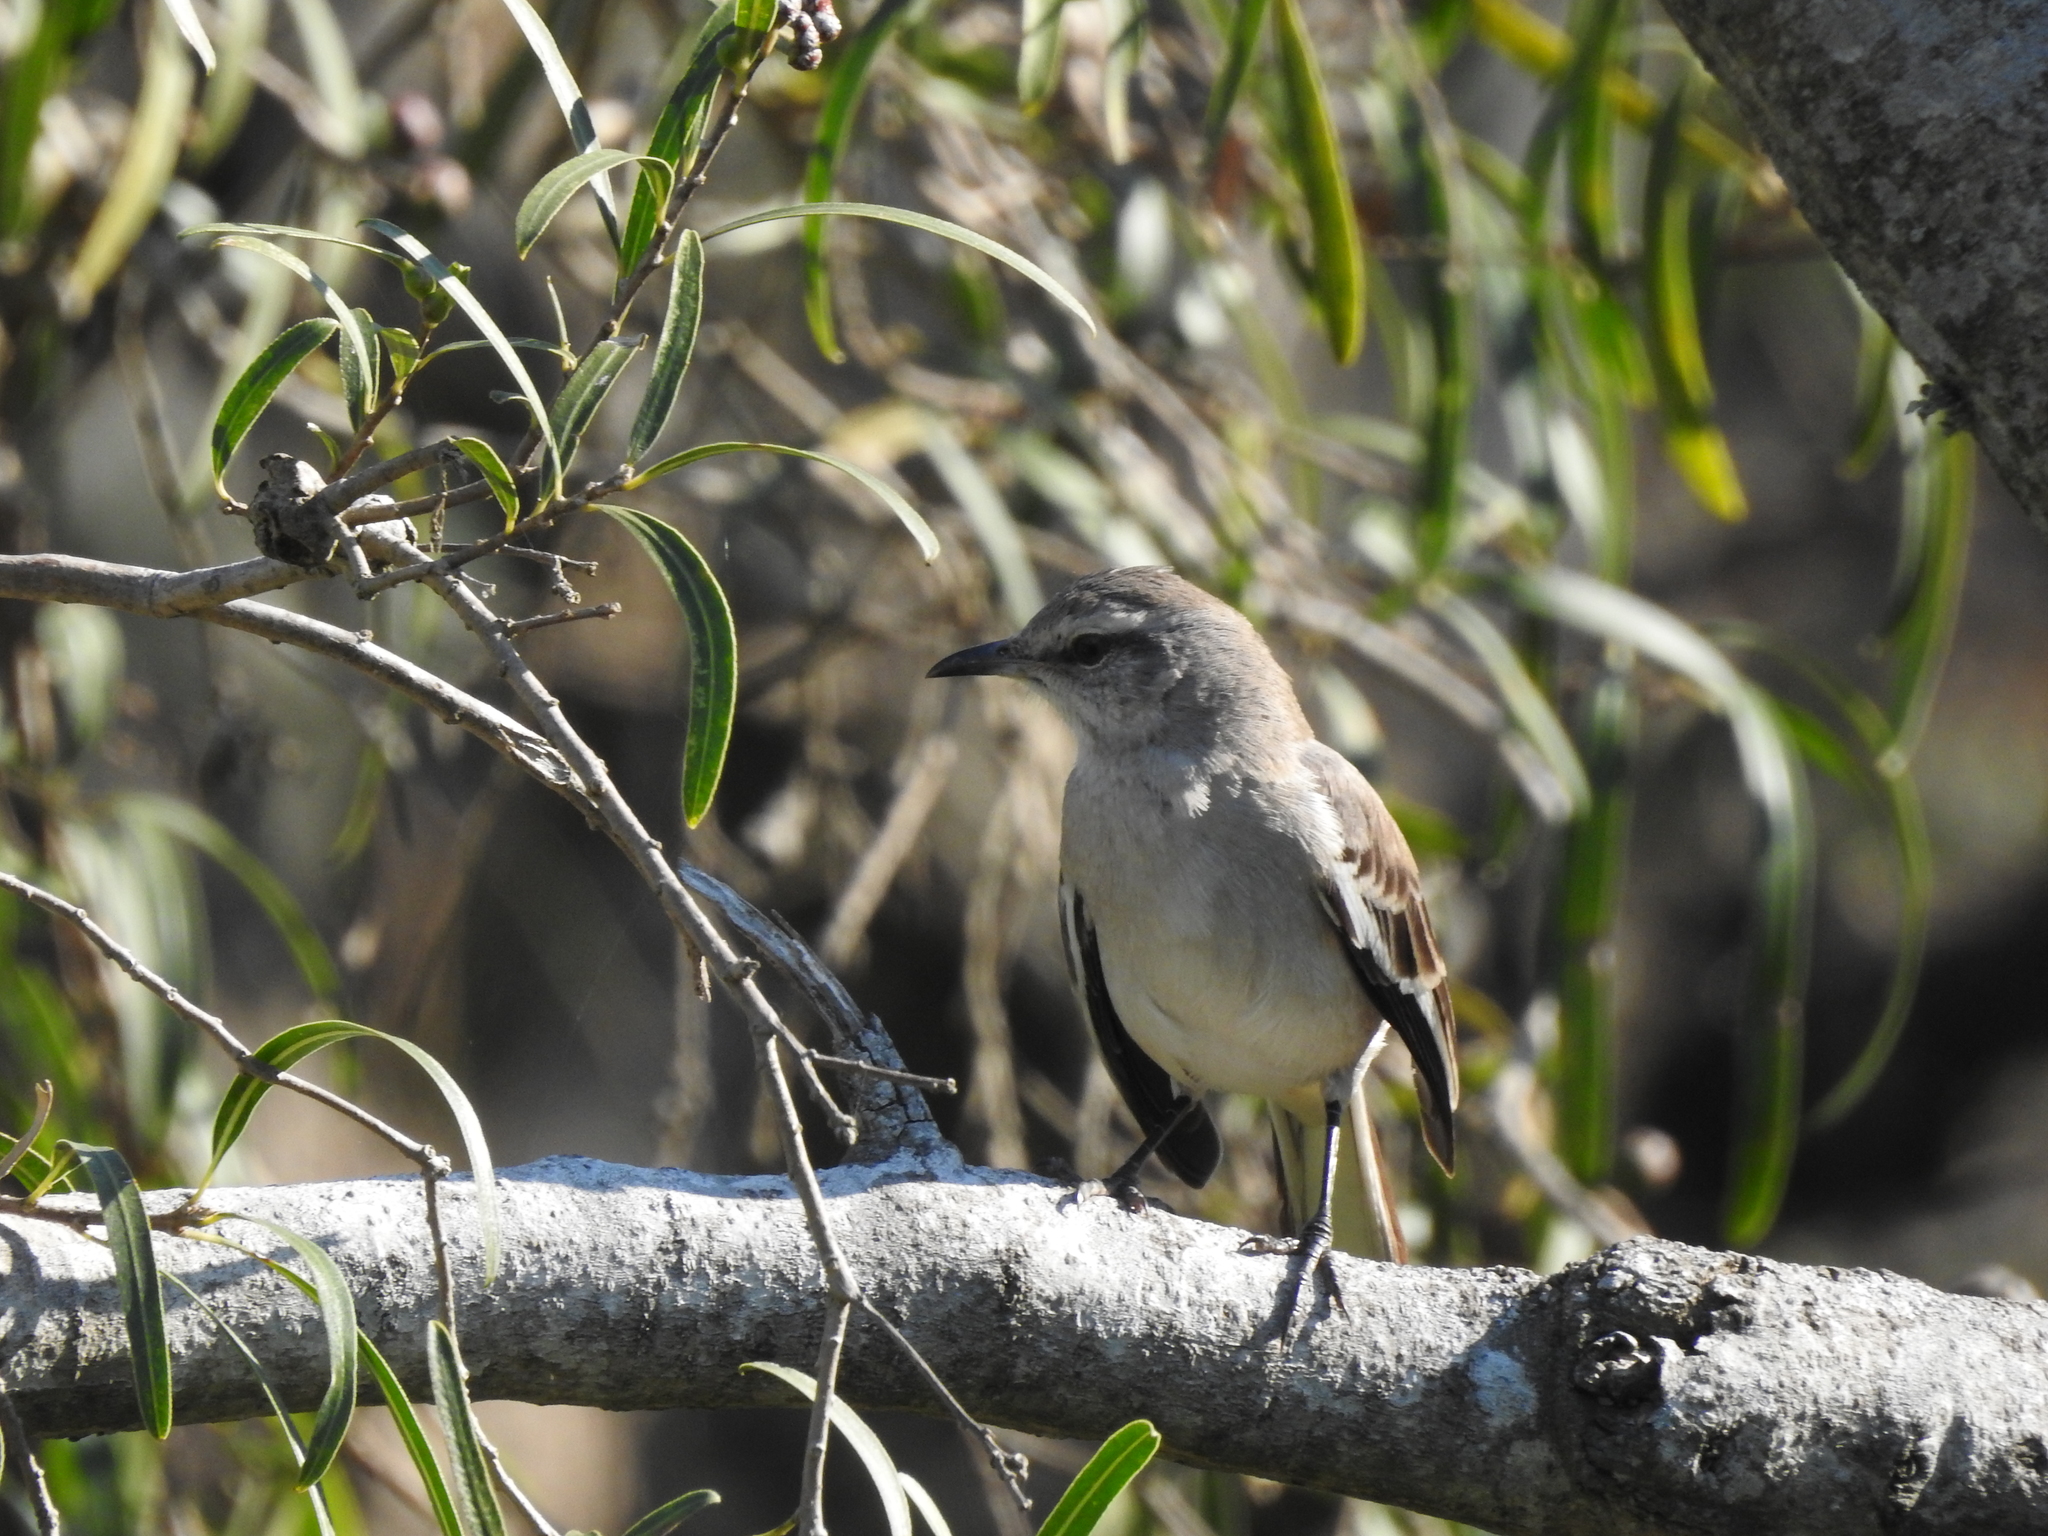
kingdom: Animalia
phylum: Chordata
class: Aves
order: Passeriformes
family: Mimidae
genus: Mimus
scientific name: Mimus triurus
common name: White-banded mockingbird
